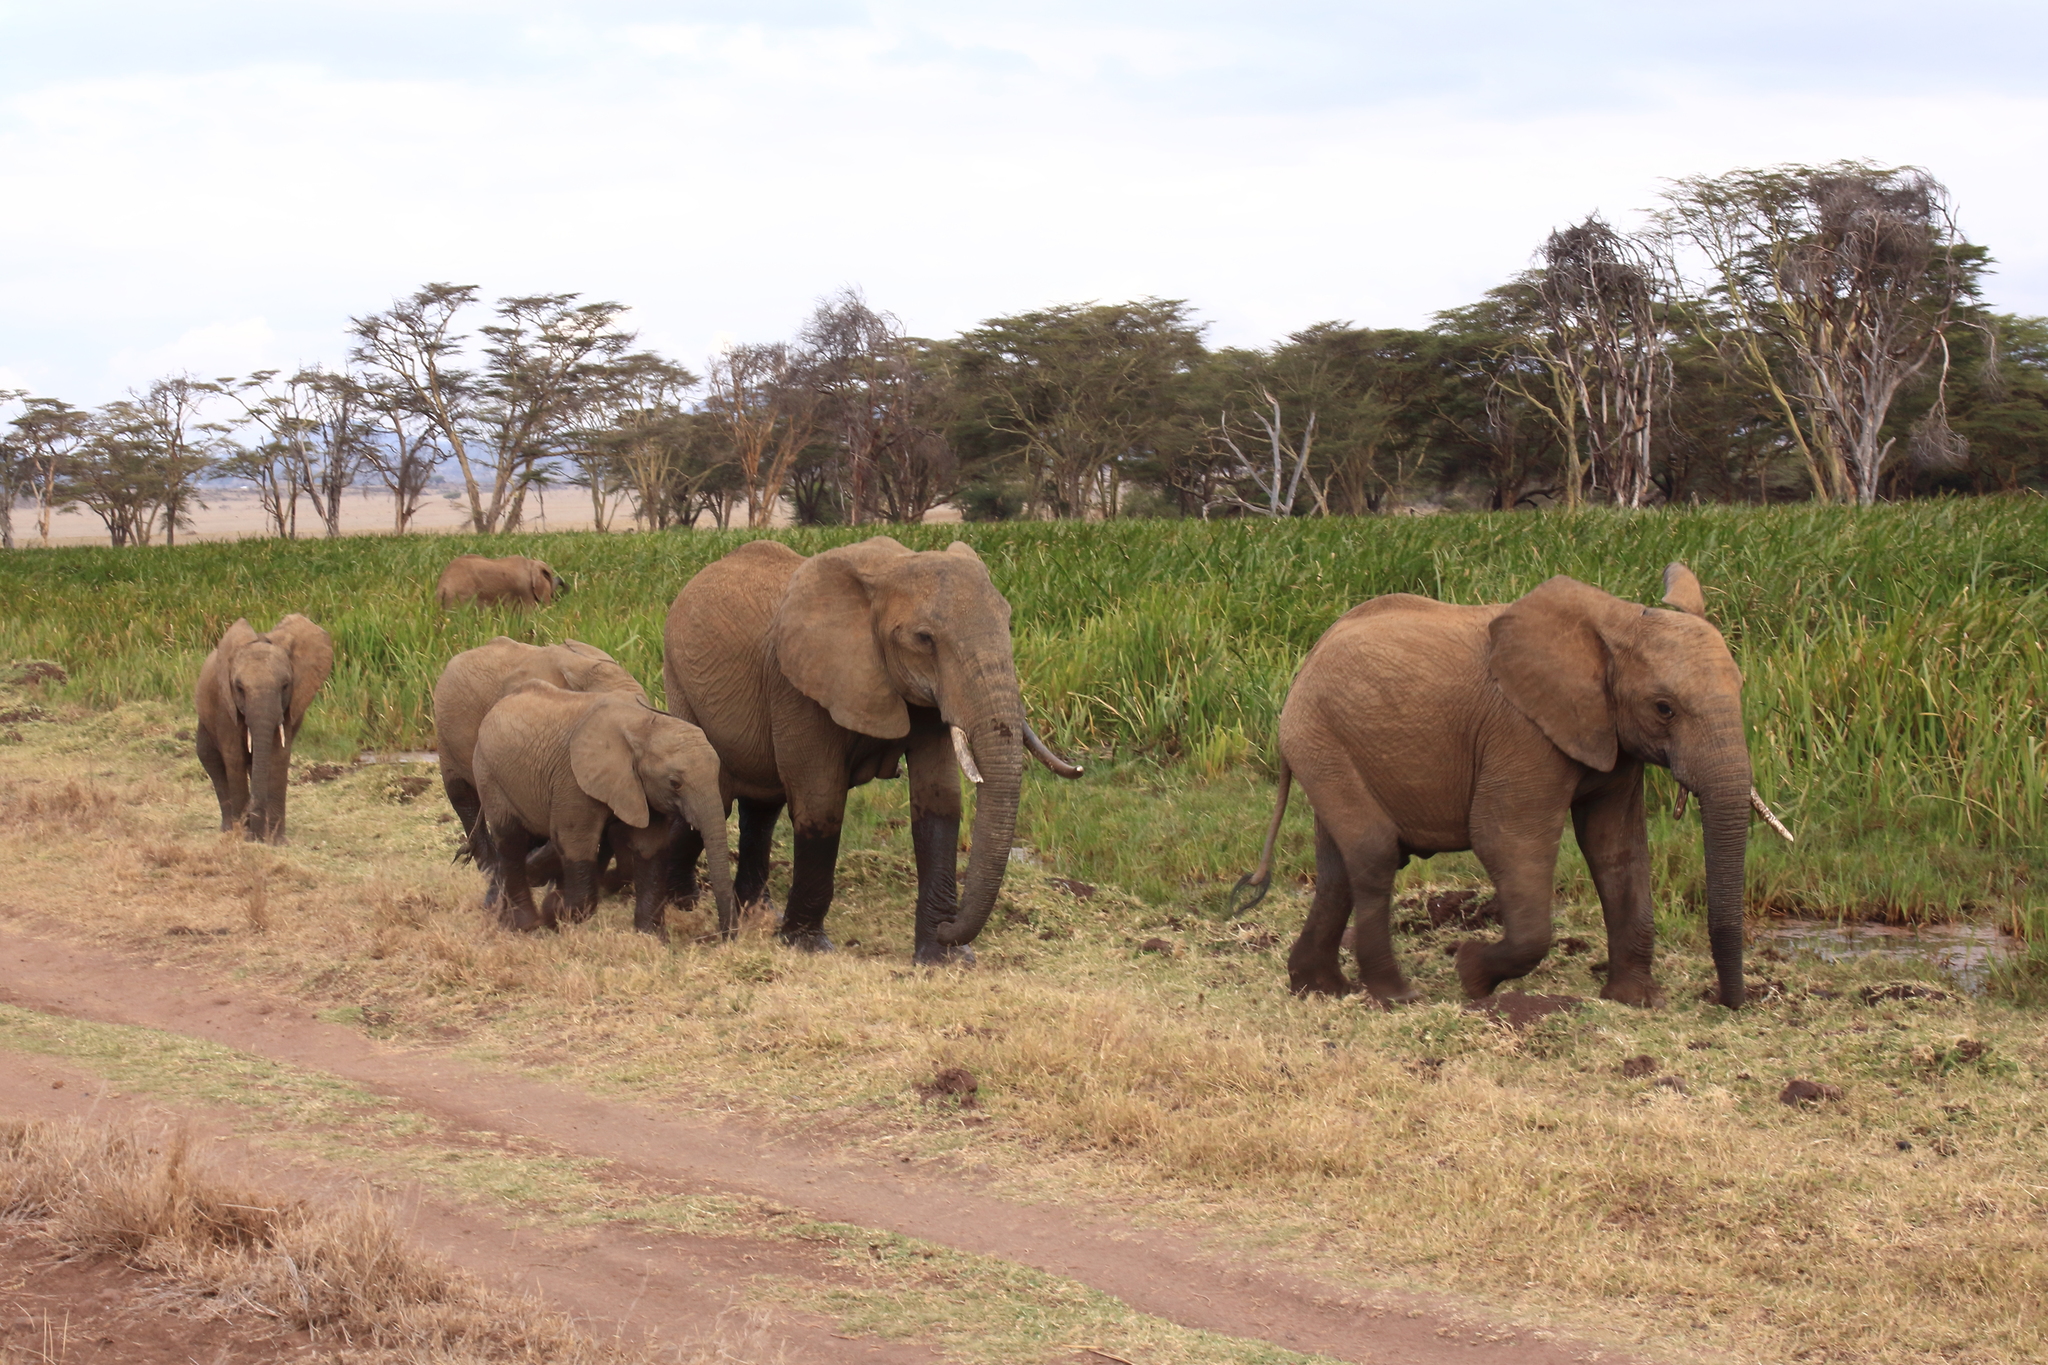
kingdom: Animalia
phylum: Chordata
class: Mammalia
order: Proboscidea
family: Elephantidae
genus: Loxodonta
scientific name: Loxodonta africana
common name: African elephant
